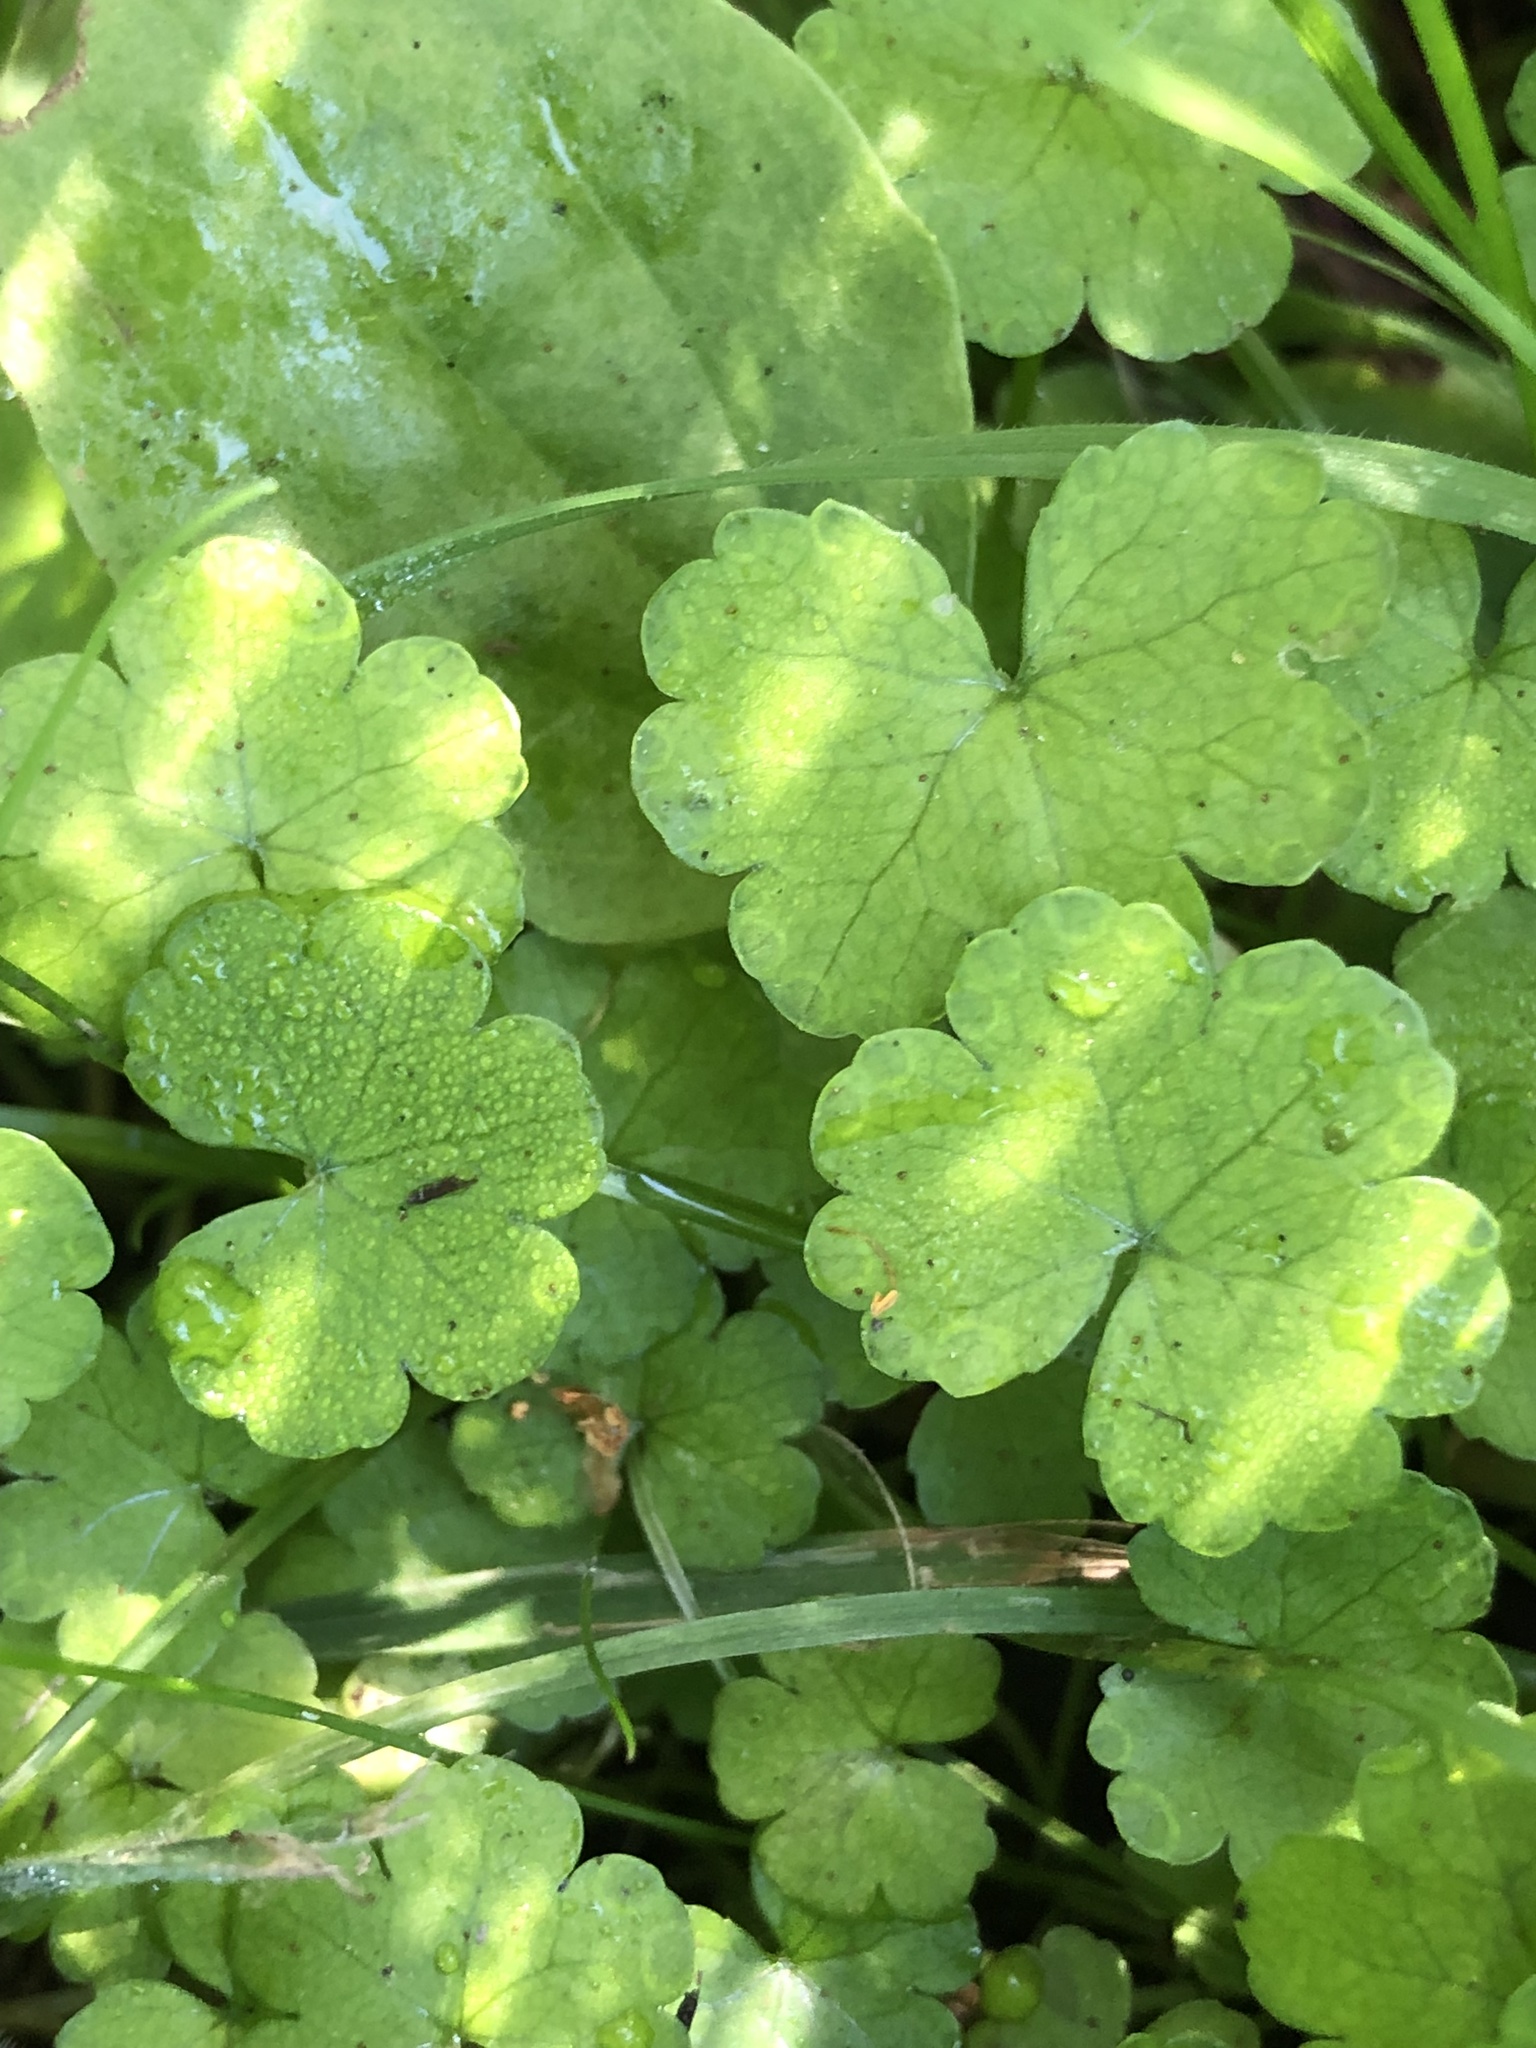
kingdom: Plantae
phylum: Tracheophyta
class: Magnoliopsida
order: Apiales
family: Araliaceae
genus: Hydrocotyle
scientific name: Hydrocotyle heteromeria
